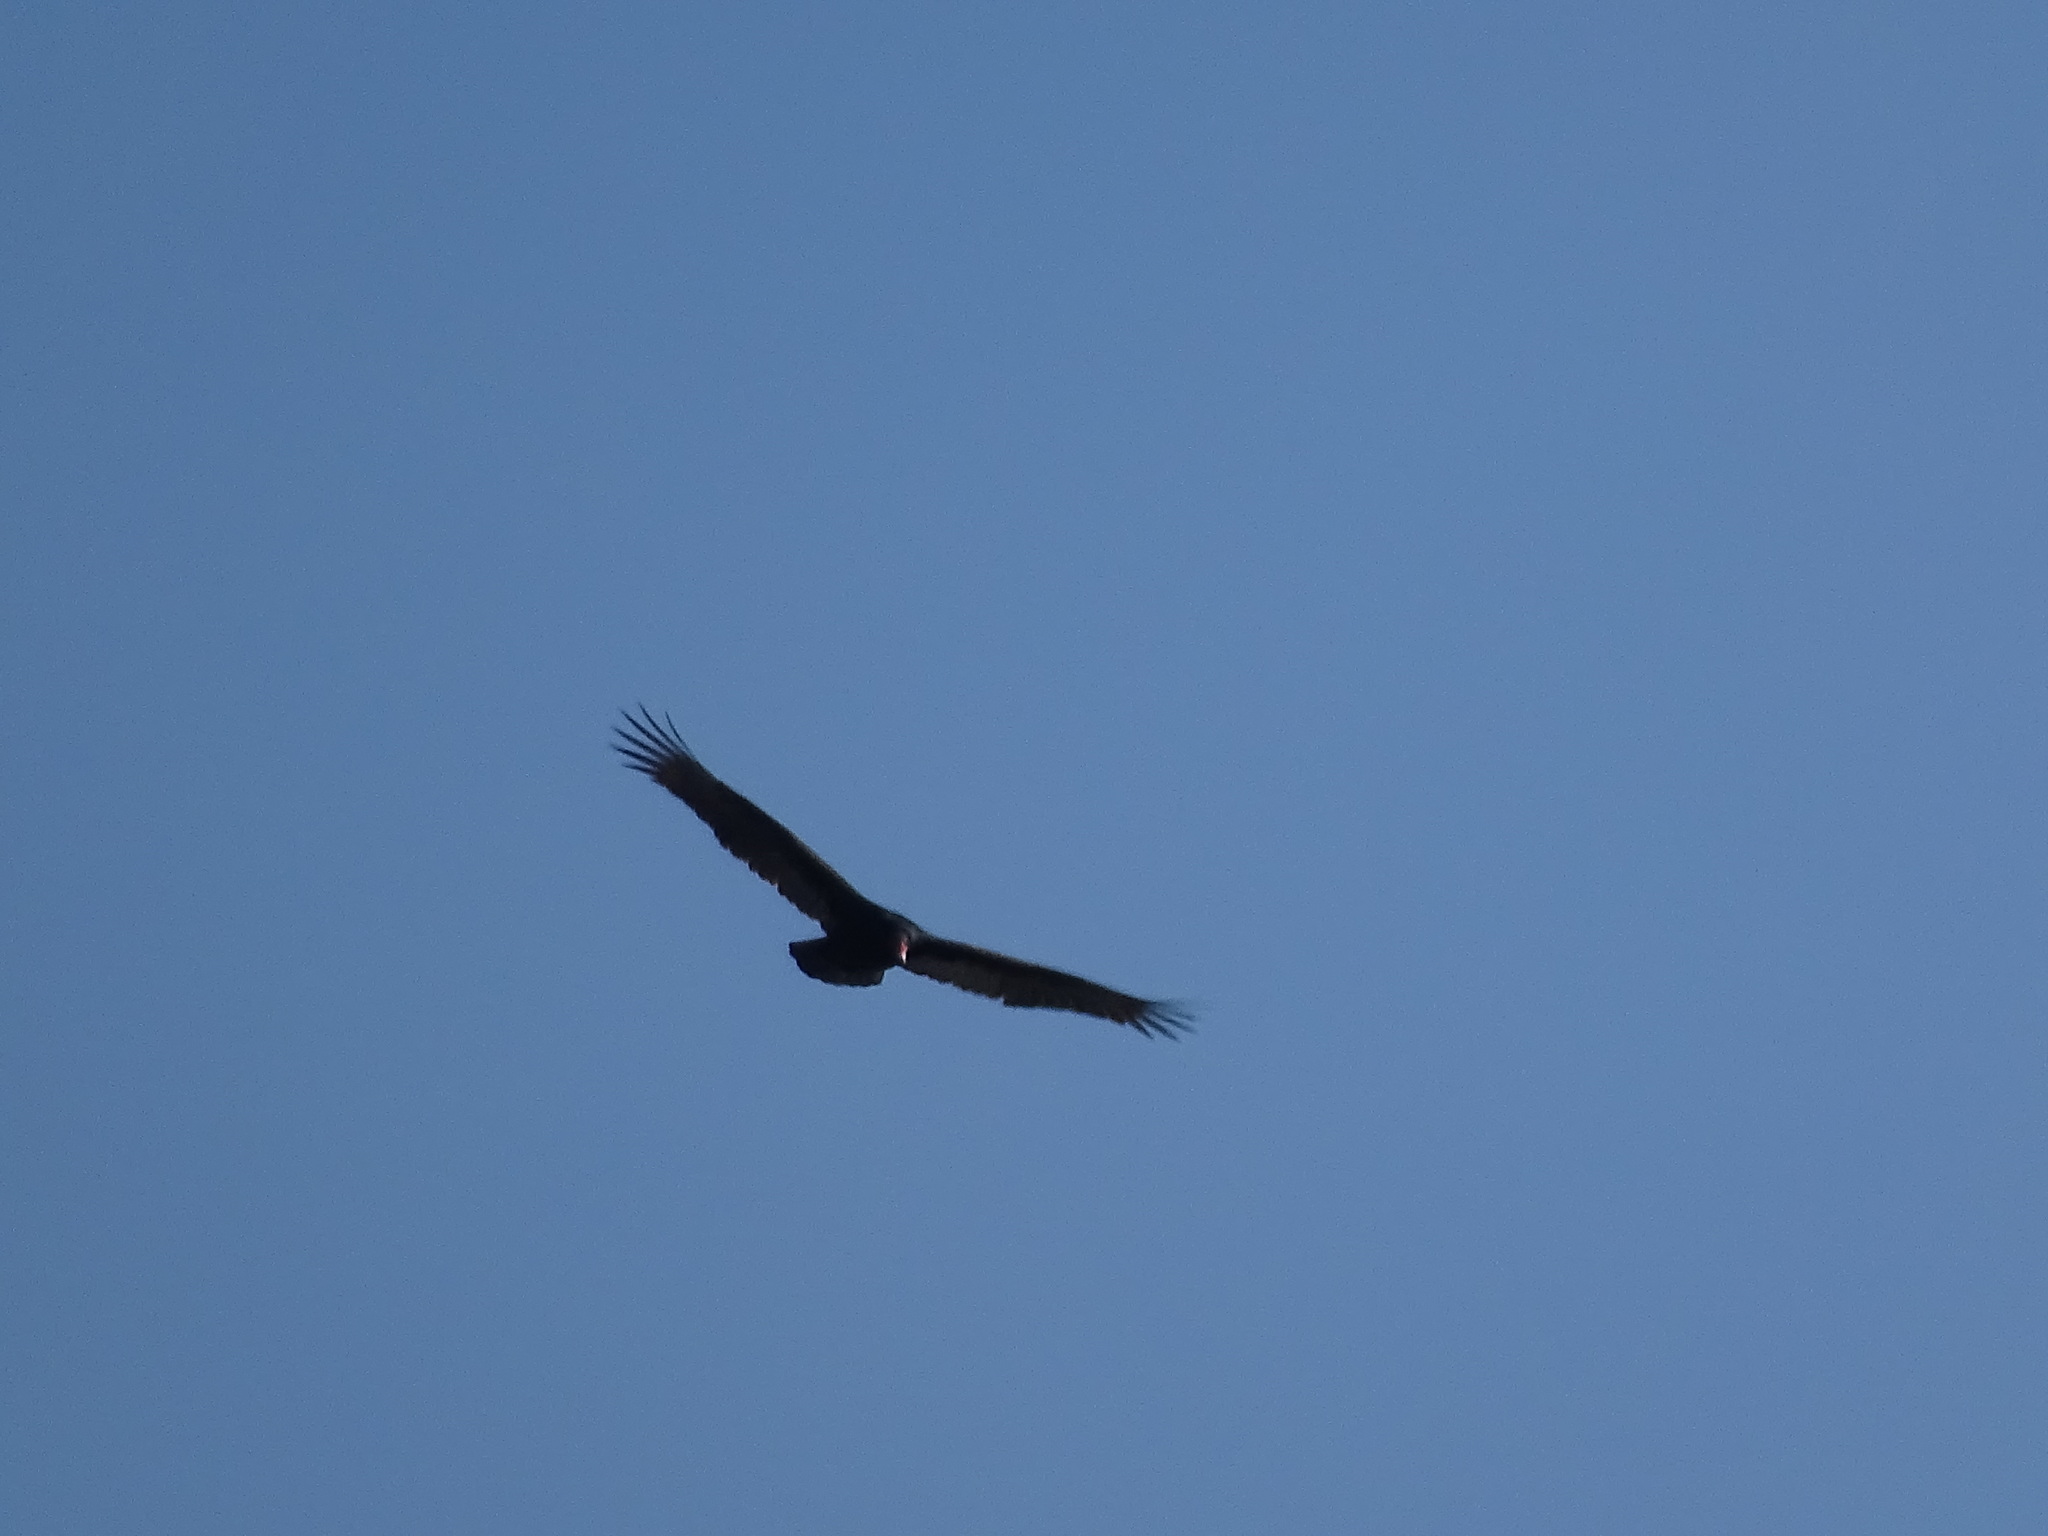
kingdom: Animalia
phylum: Chordata
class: Aves
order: Accipitriformes
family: Cathartidae
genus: Cathartes
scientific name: Cathartes aura
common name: Turkey vulture
